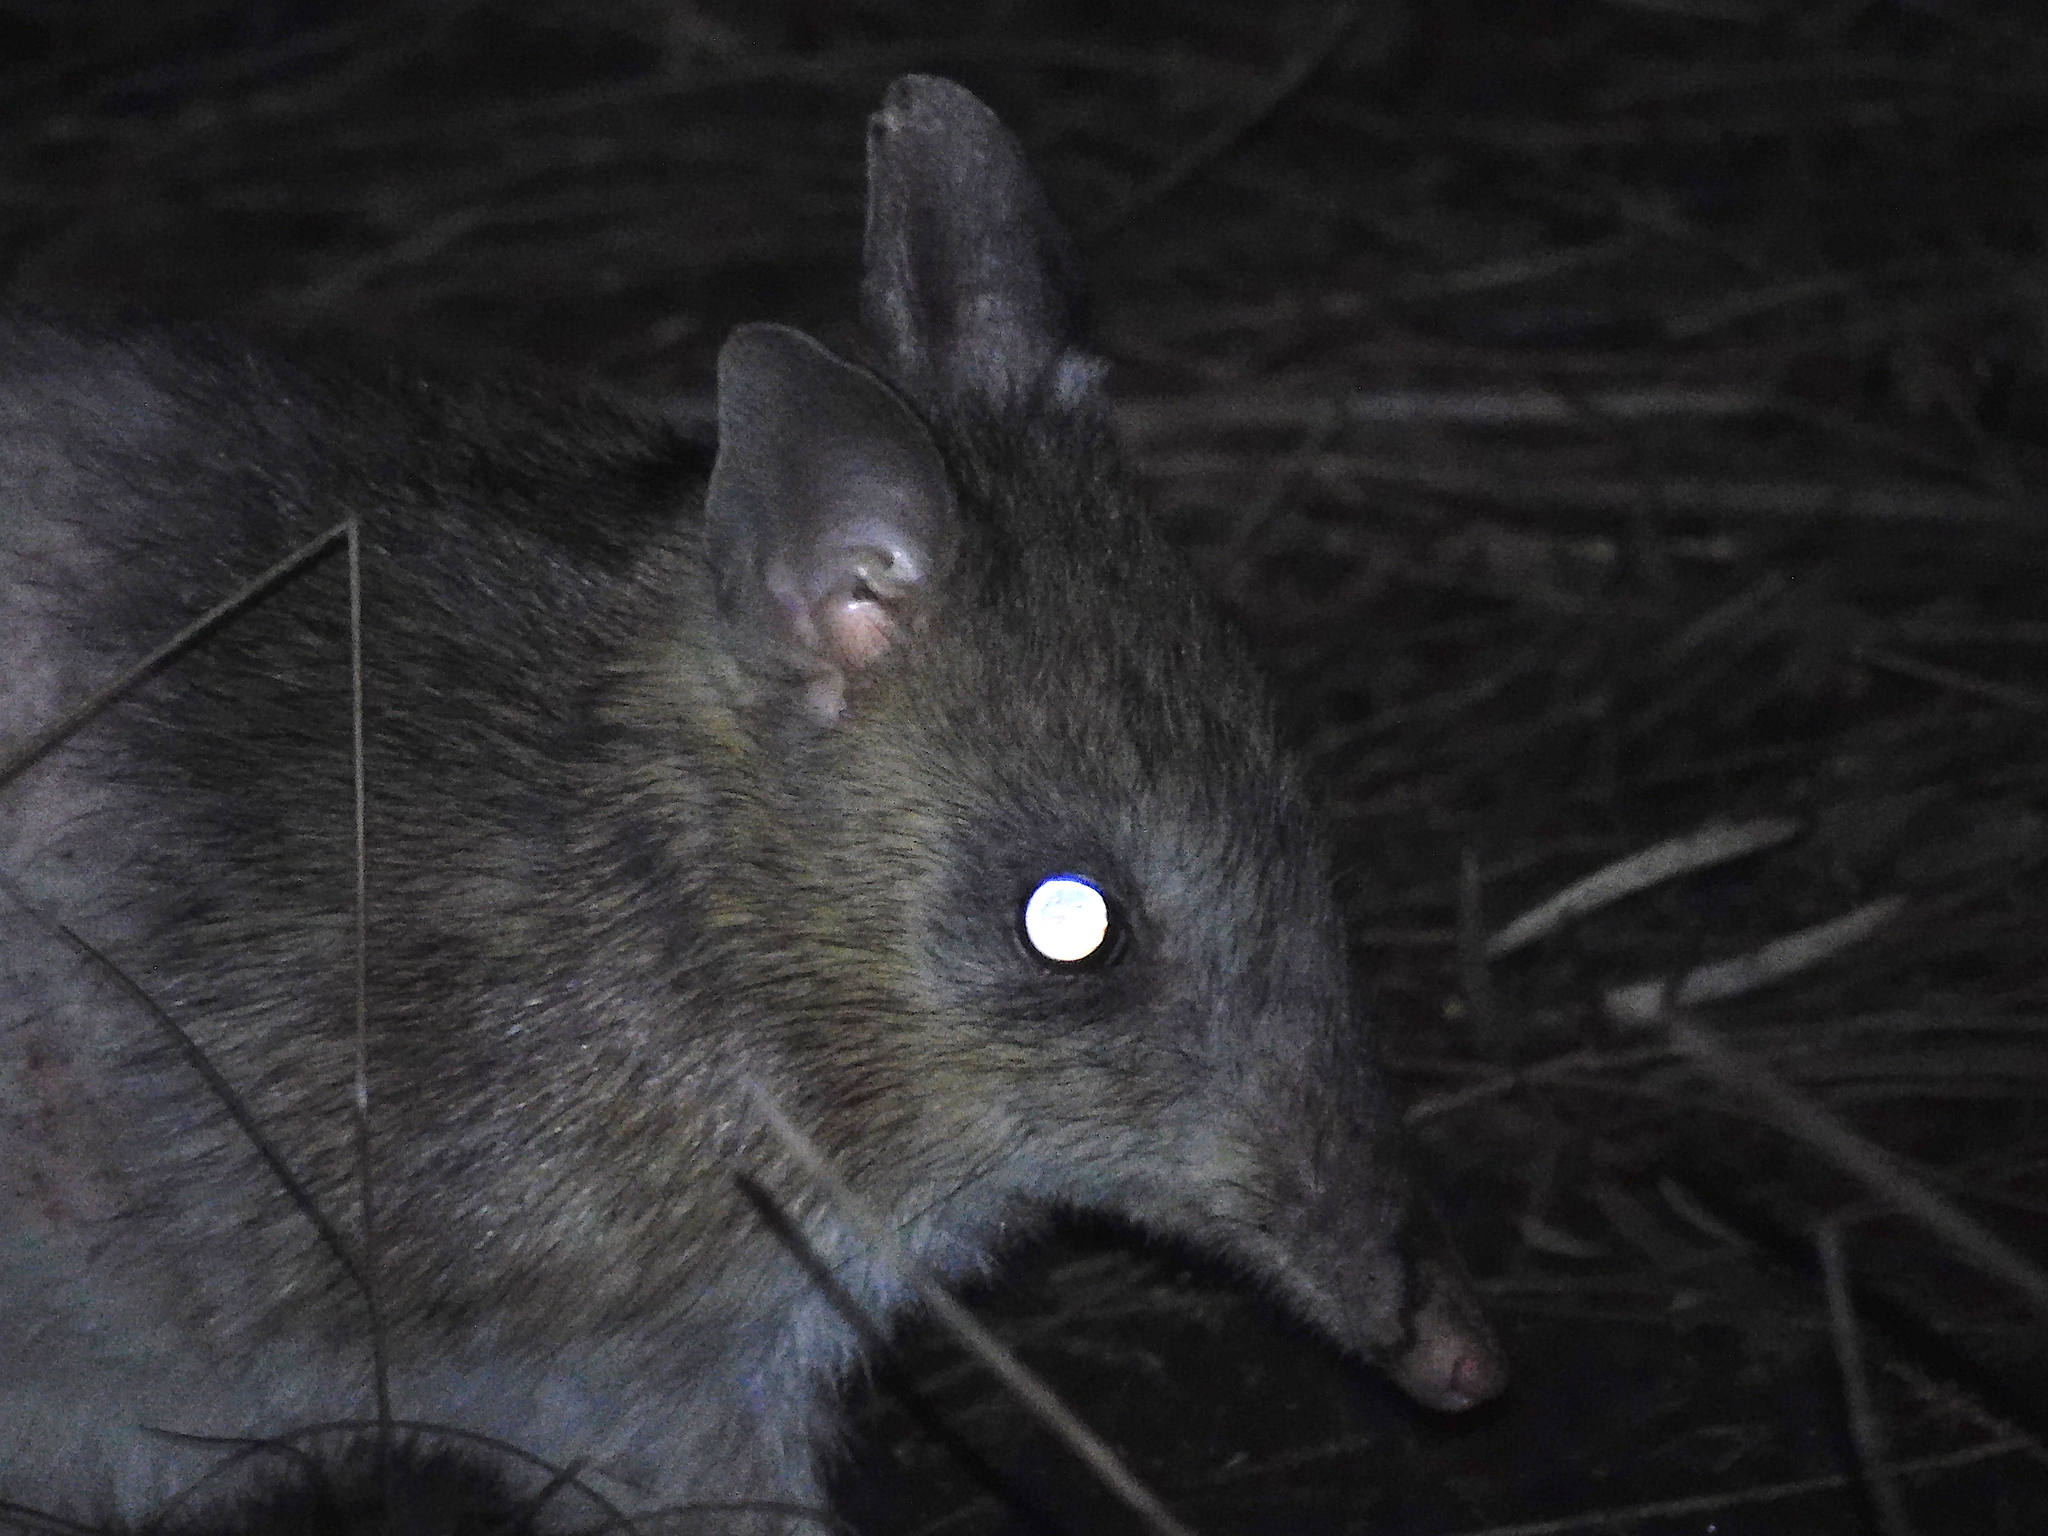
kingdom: Animalia
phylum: Chordata
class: Mammalia
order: Peramelemorphia
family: Peramelidae
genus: Perameles
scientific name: Perameles gunnii
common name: Eastern barred bandicoot
